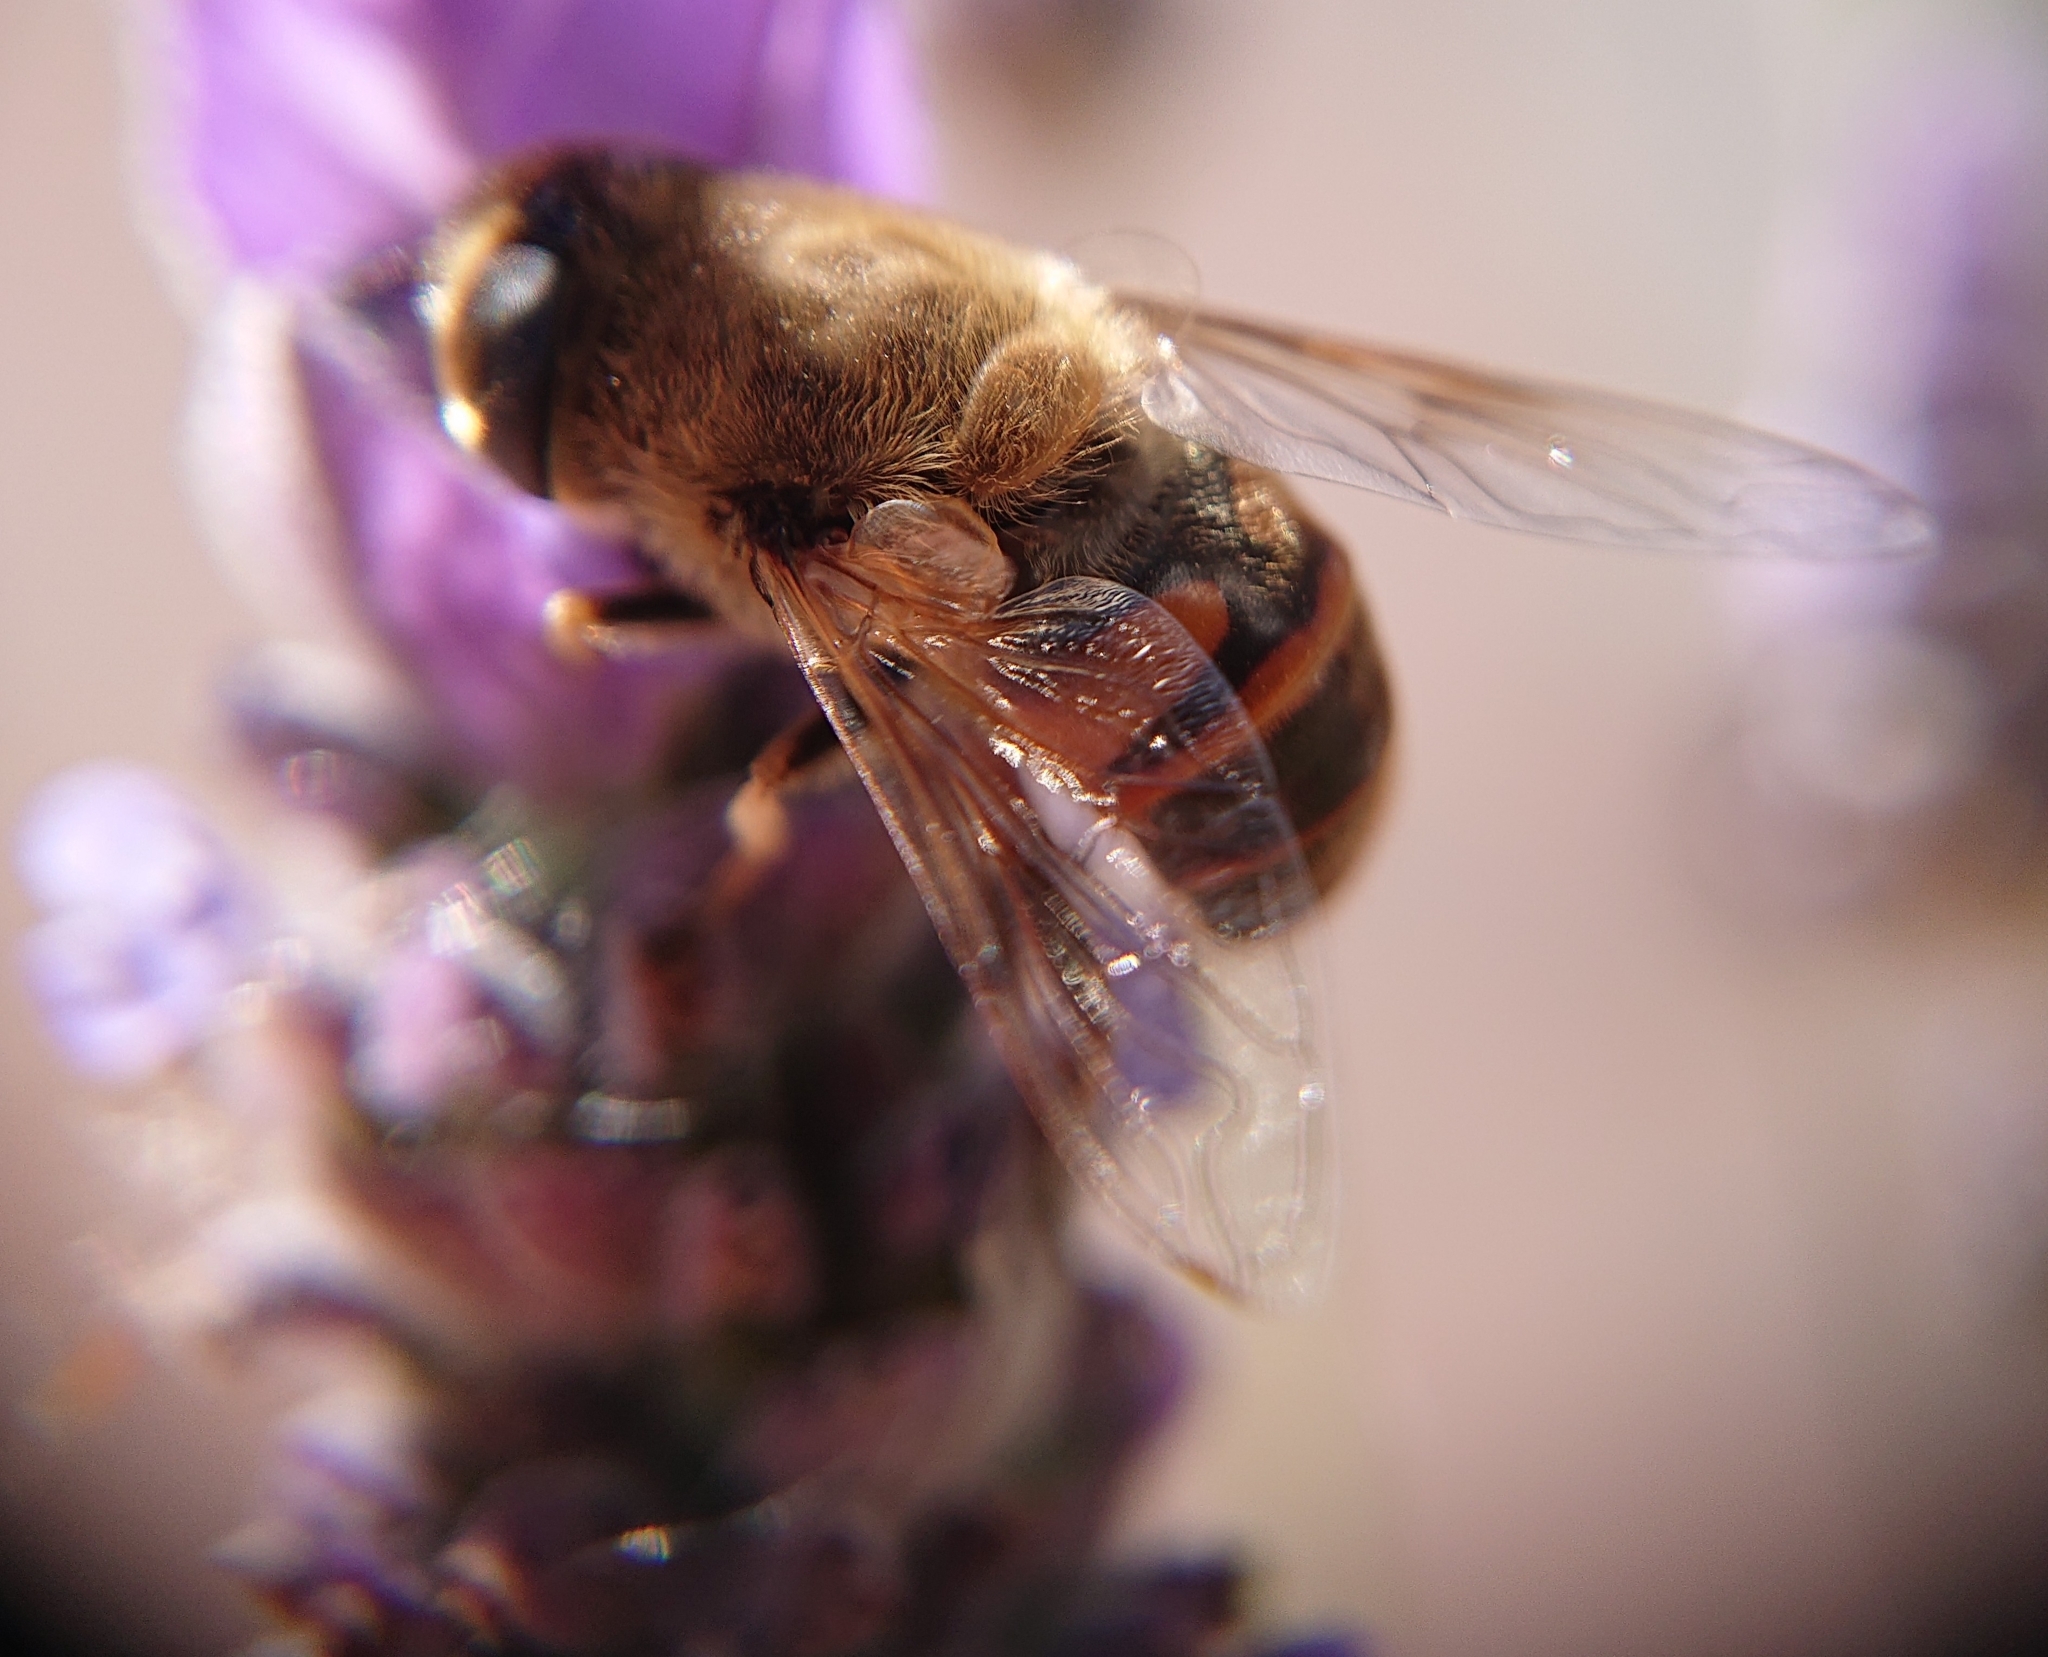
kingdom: Animalia
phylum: Arthropoda
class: Insecta
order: Diptera
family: Syrphidae
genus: Eristalis
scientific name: Eristalis tenax
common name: Drone fly
